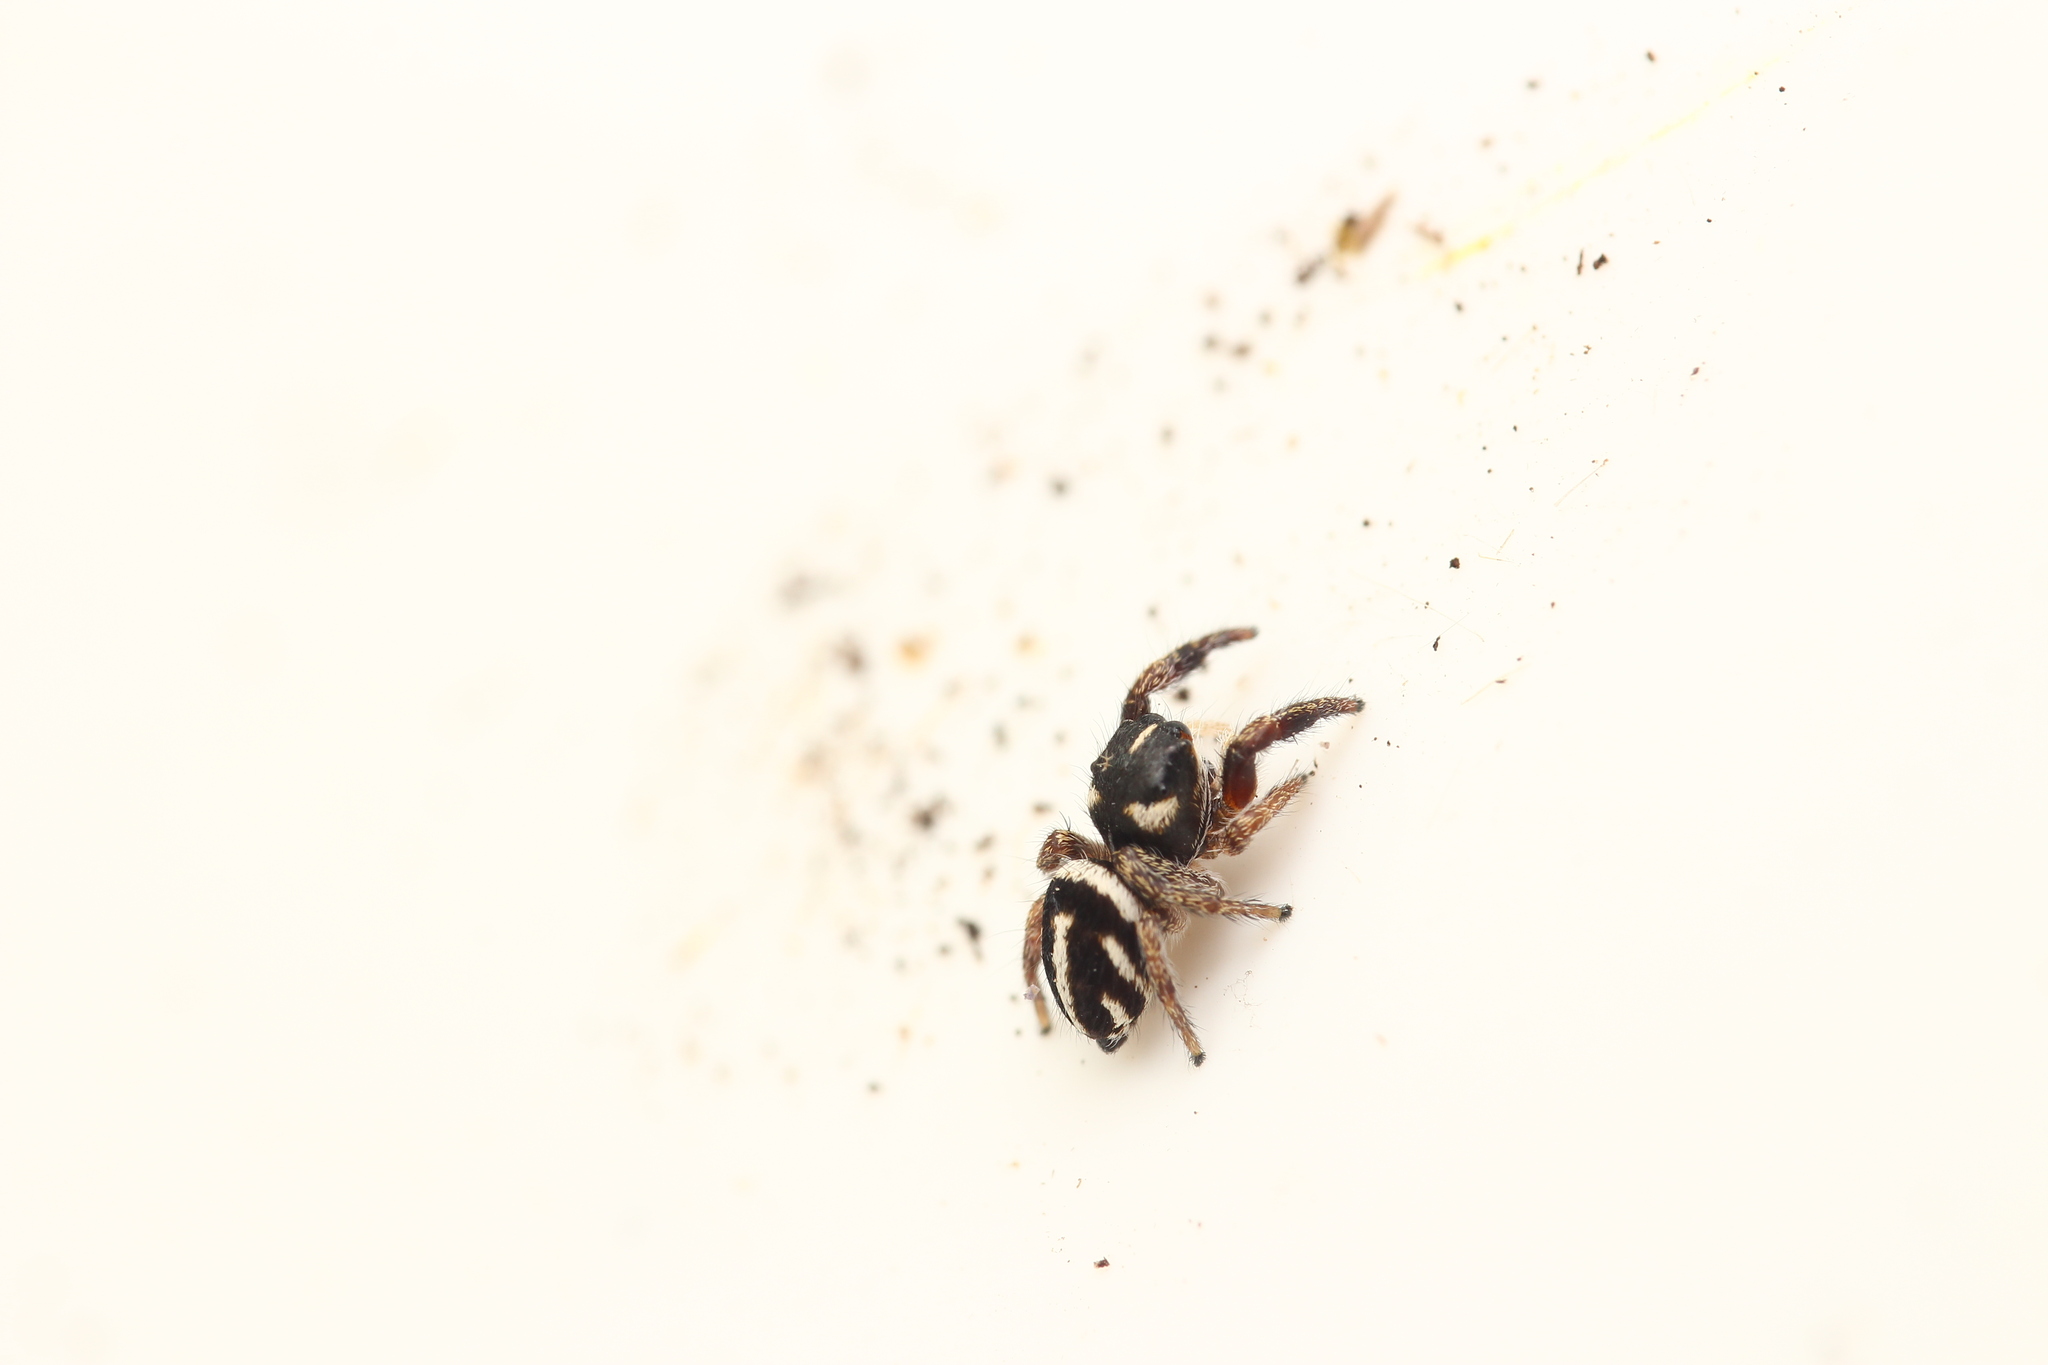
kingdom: Animalia
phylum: Arthropoda
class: Arachnida
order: Araneae
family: Salticidae
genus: Pellenes
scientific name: Pellenes nigrociliatus
